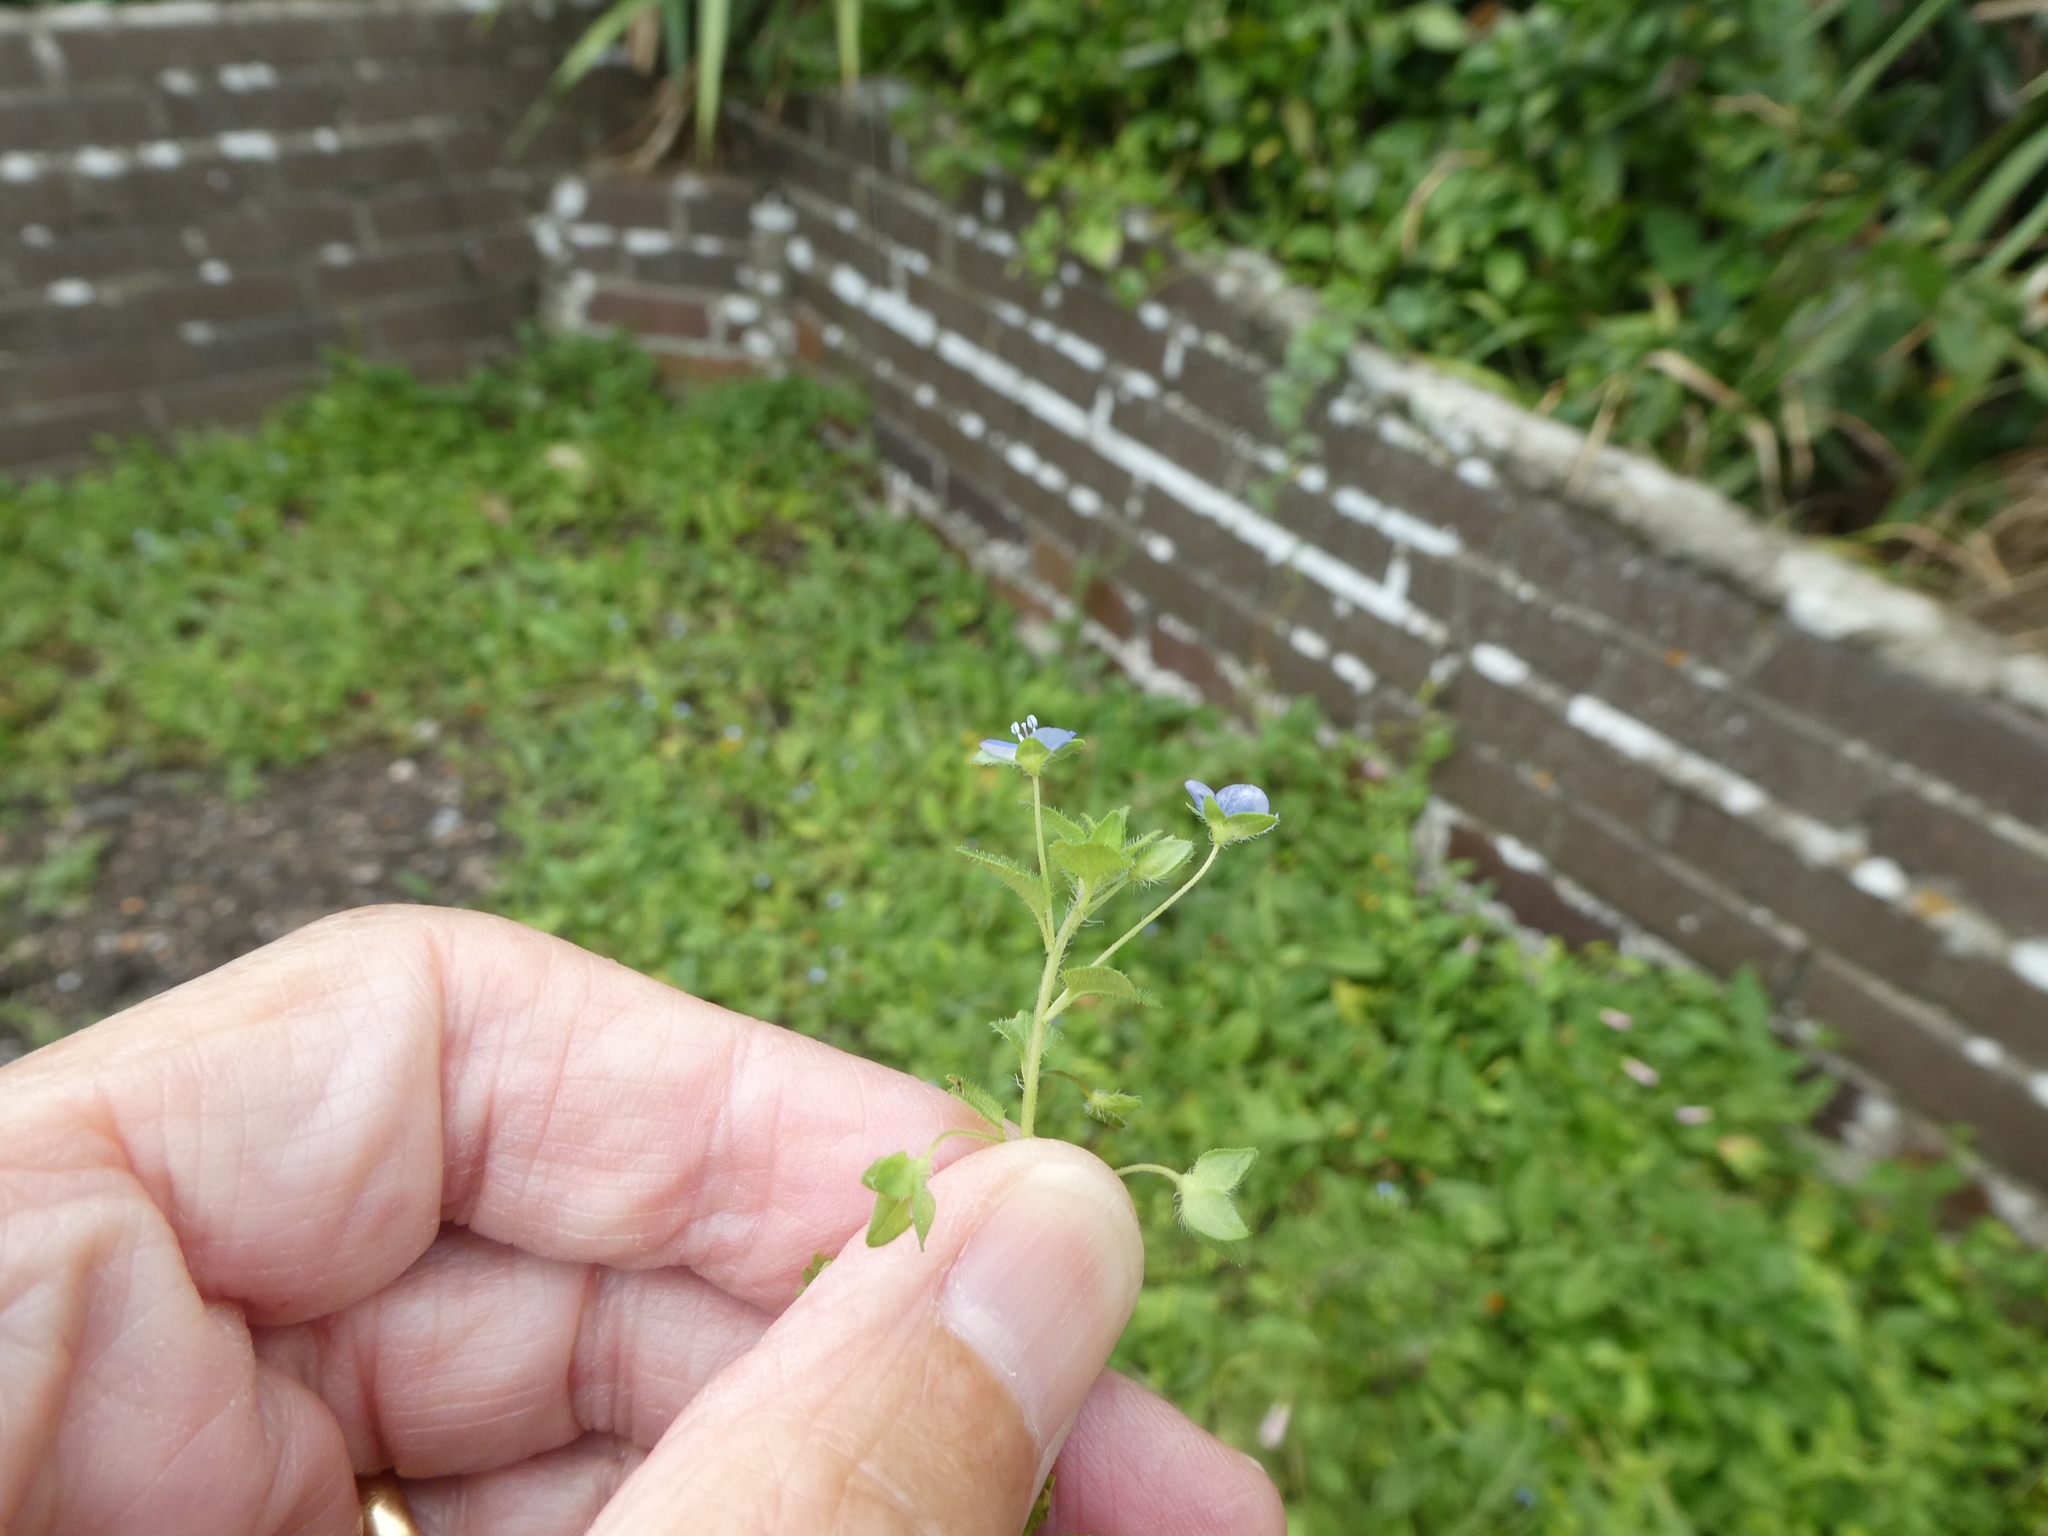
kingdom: Plantae
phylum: Tracheophyta
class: Magnoliopsida
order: Lamiales
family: Plantaginaceae
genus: Veronica
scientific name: Veronica persica
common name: Common field-speedwell
